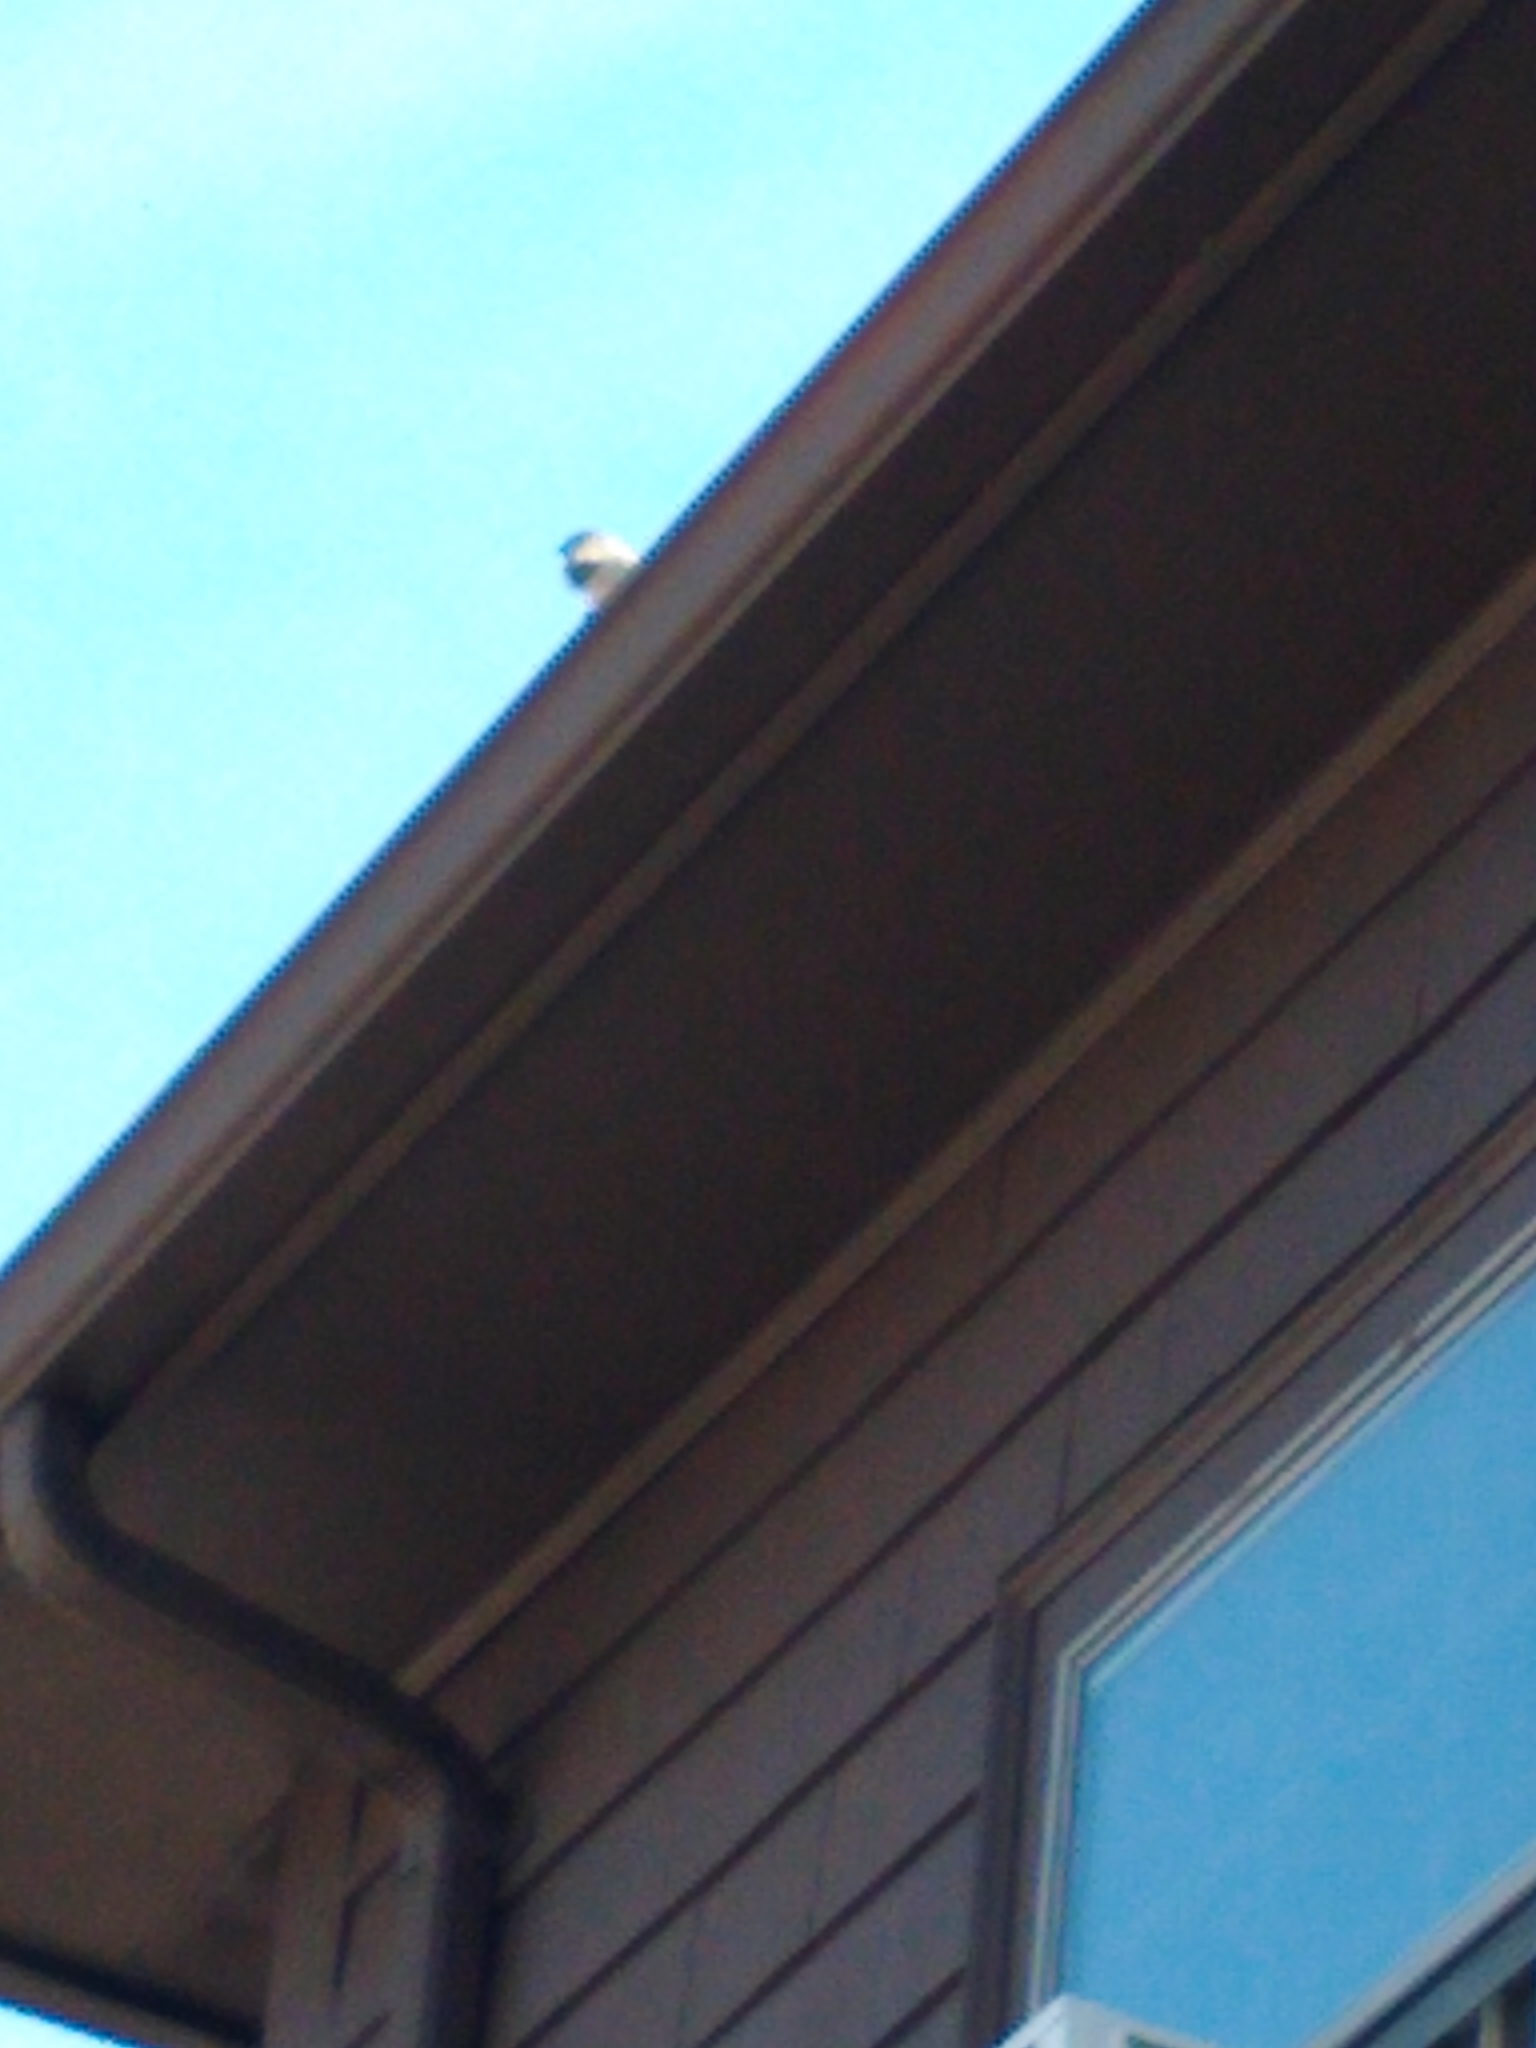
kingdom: Animalia
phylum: Chordata
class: Aves
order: Passeriformes
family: Passeridae
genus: Passer
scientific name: Passer domesticus
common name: House sparrow
